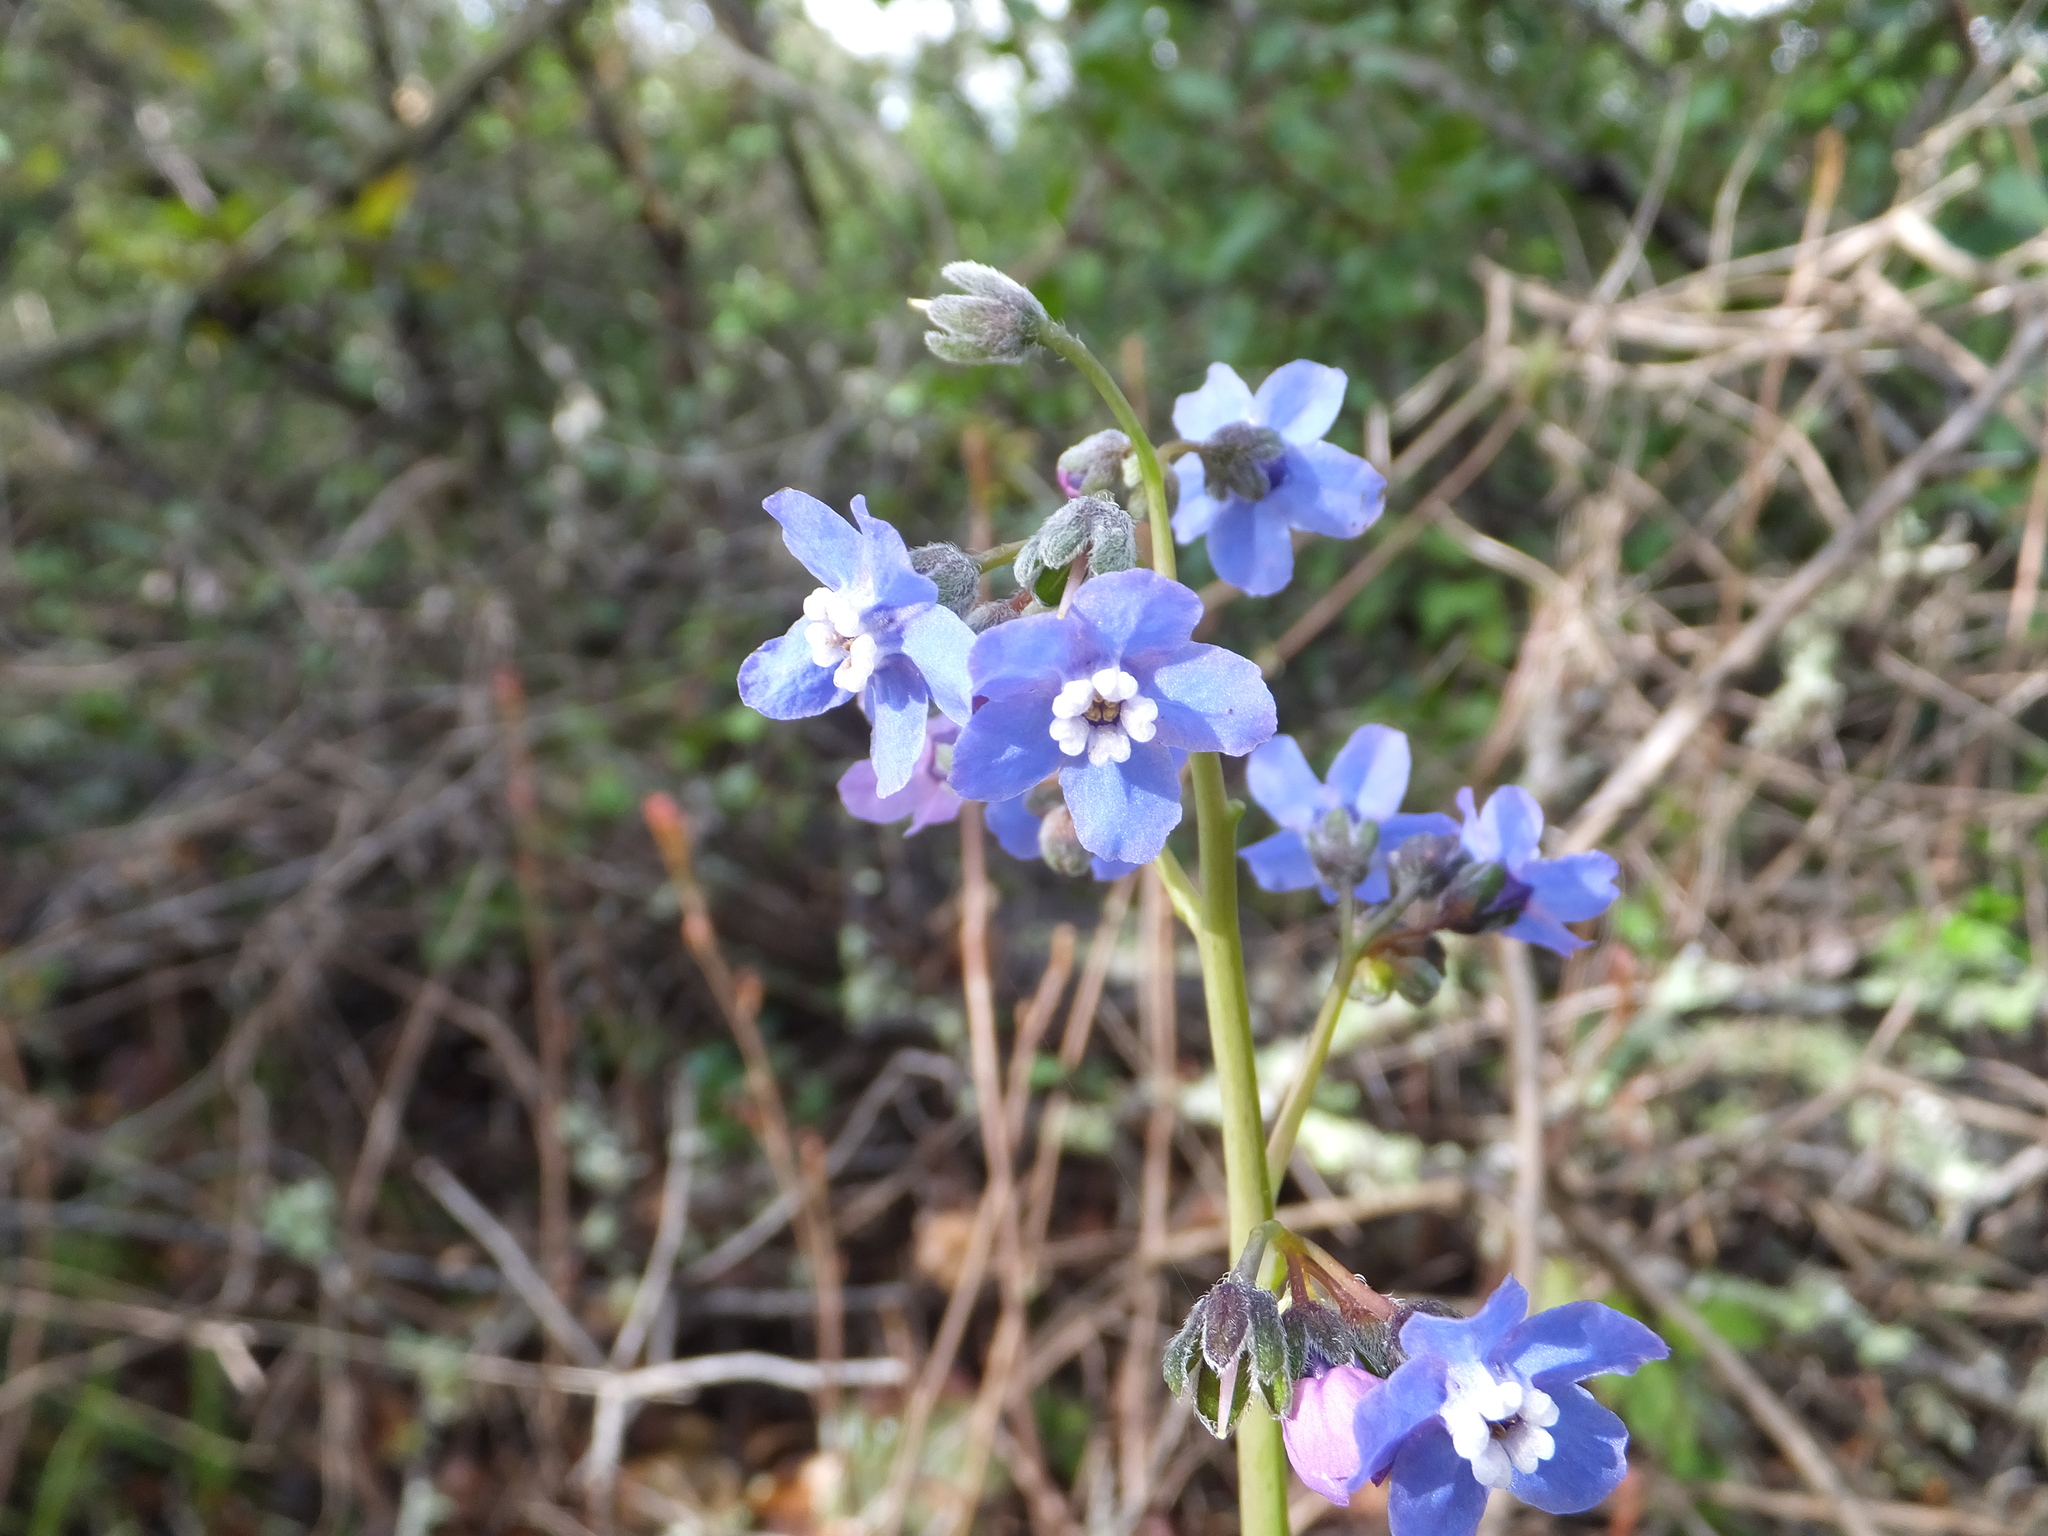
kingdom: Plantae
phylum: Tracheophyta
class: Magnoliopsida
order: Boraginales
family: Boraginaceae
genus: Adelinia
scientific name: Adelinia grande
